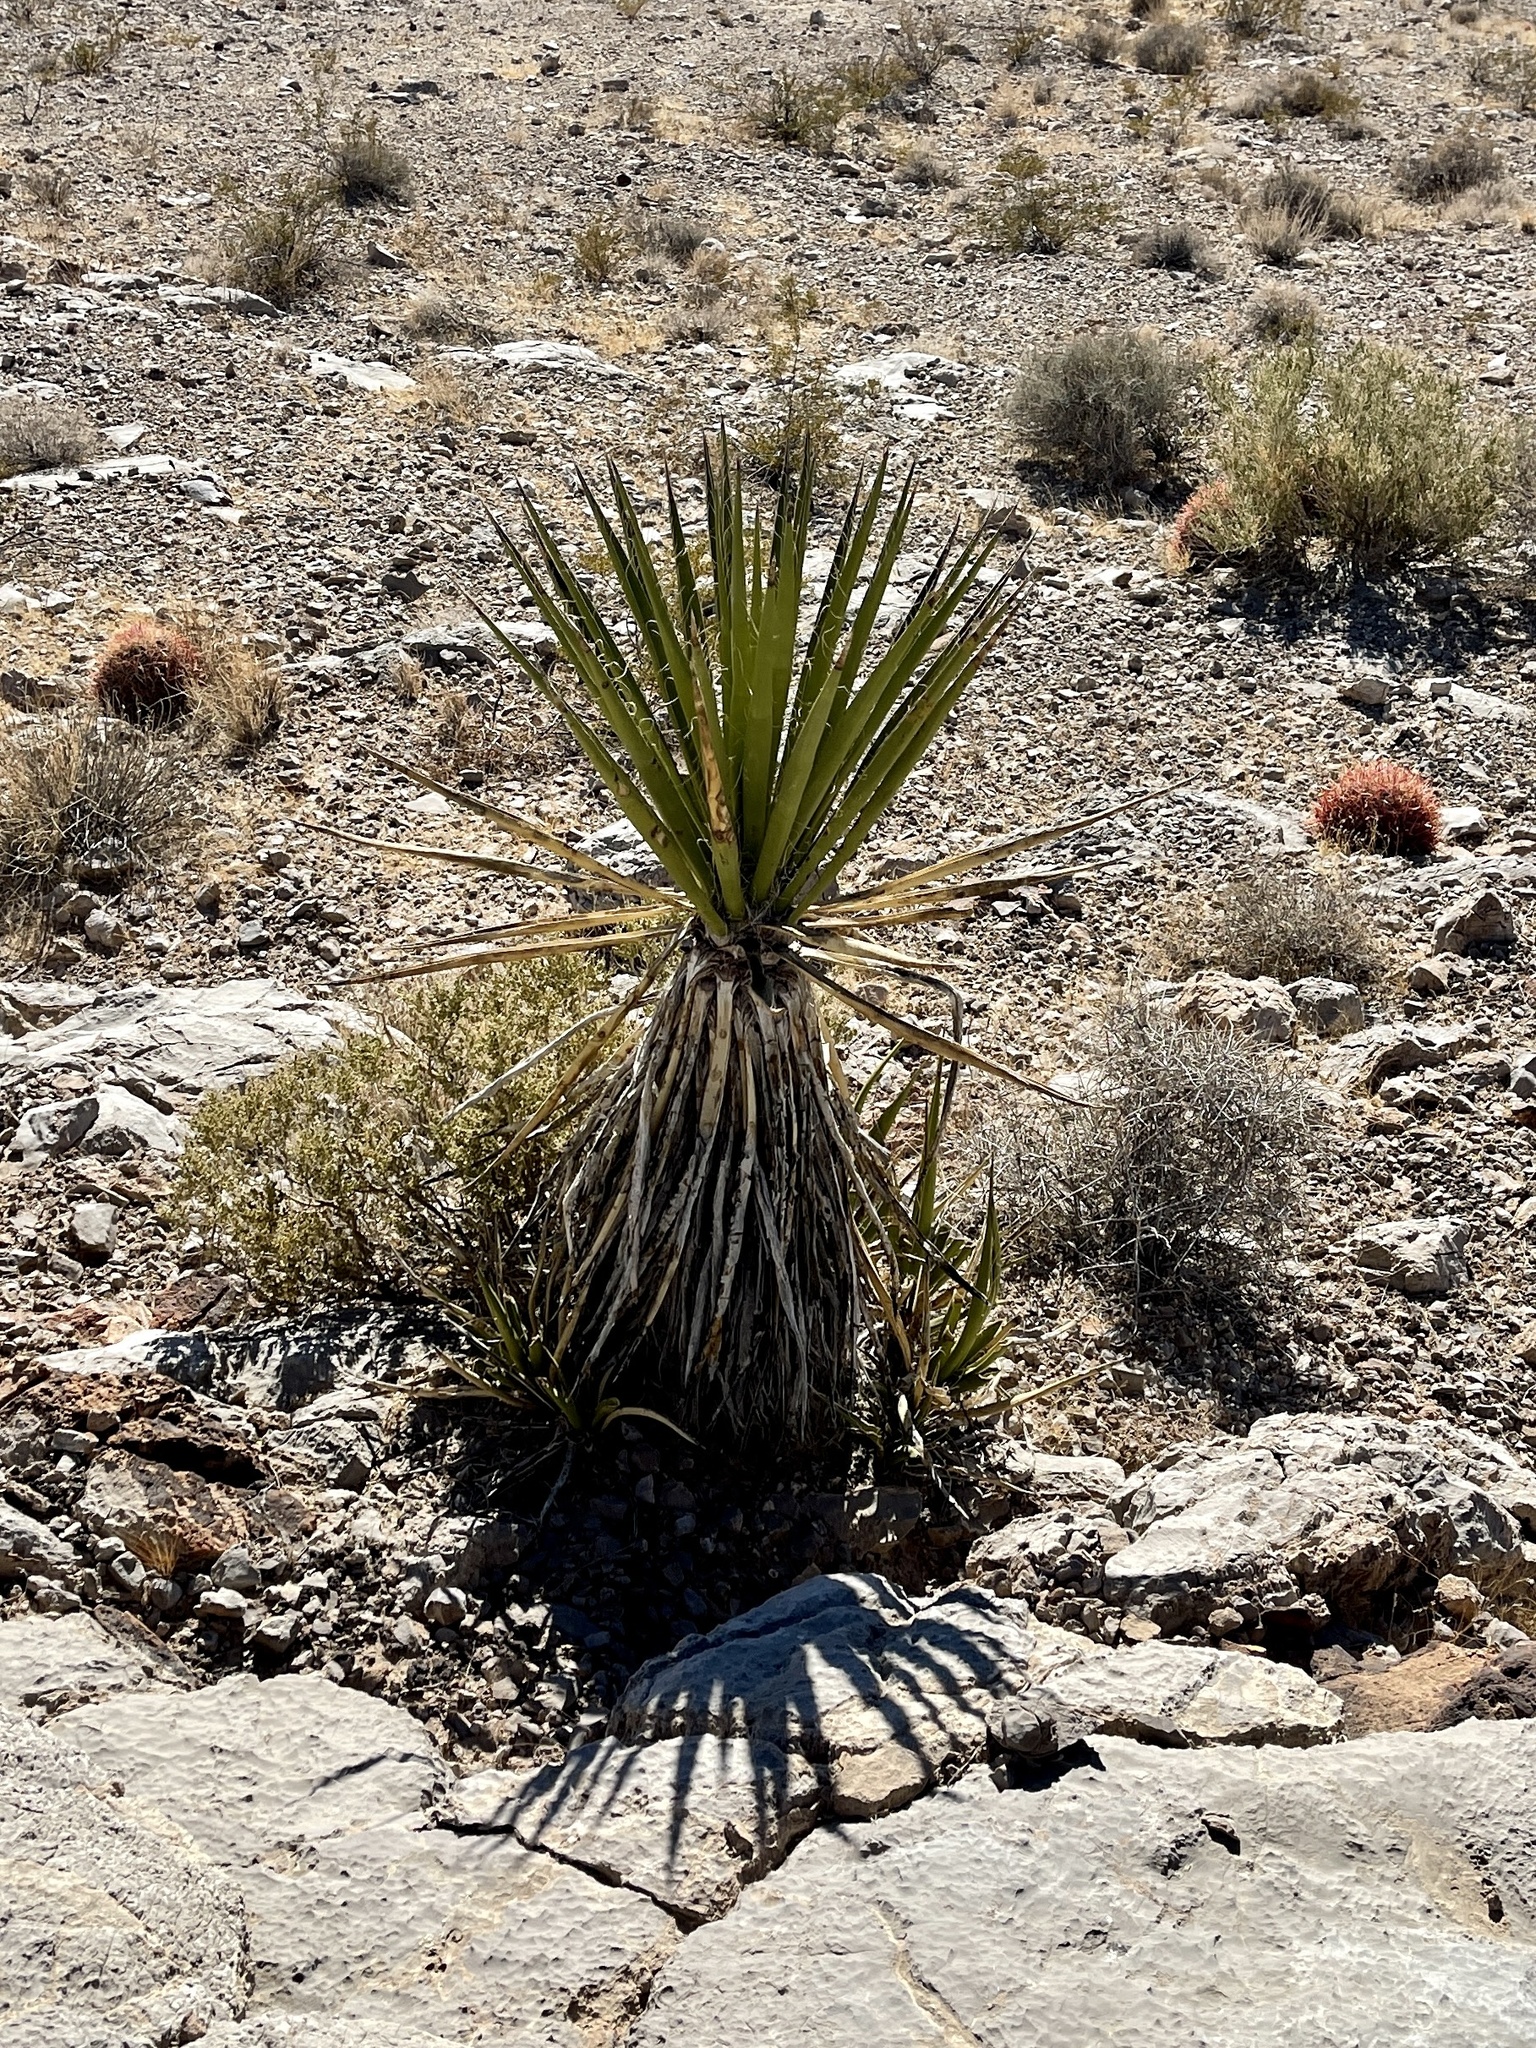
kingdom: Plantae
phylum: Tracheophyta
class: Liliopsida
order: Asparagales
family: Asparagaceae
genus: Yucca
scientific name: Yucca schidigera
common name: Mojave yucca
